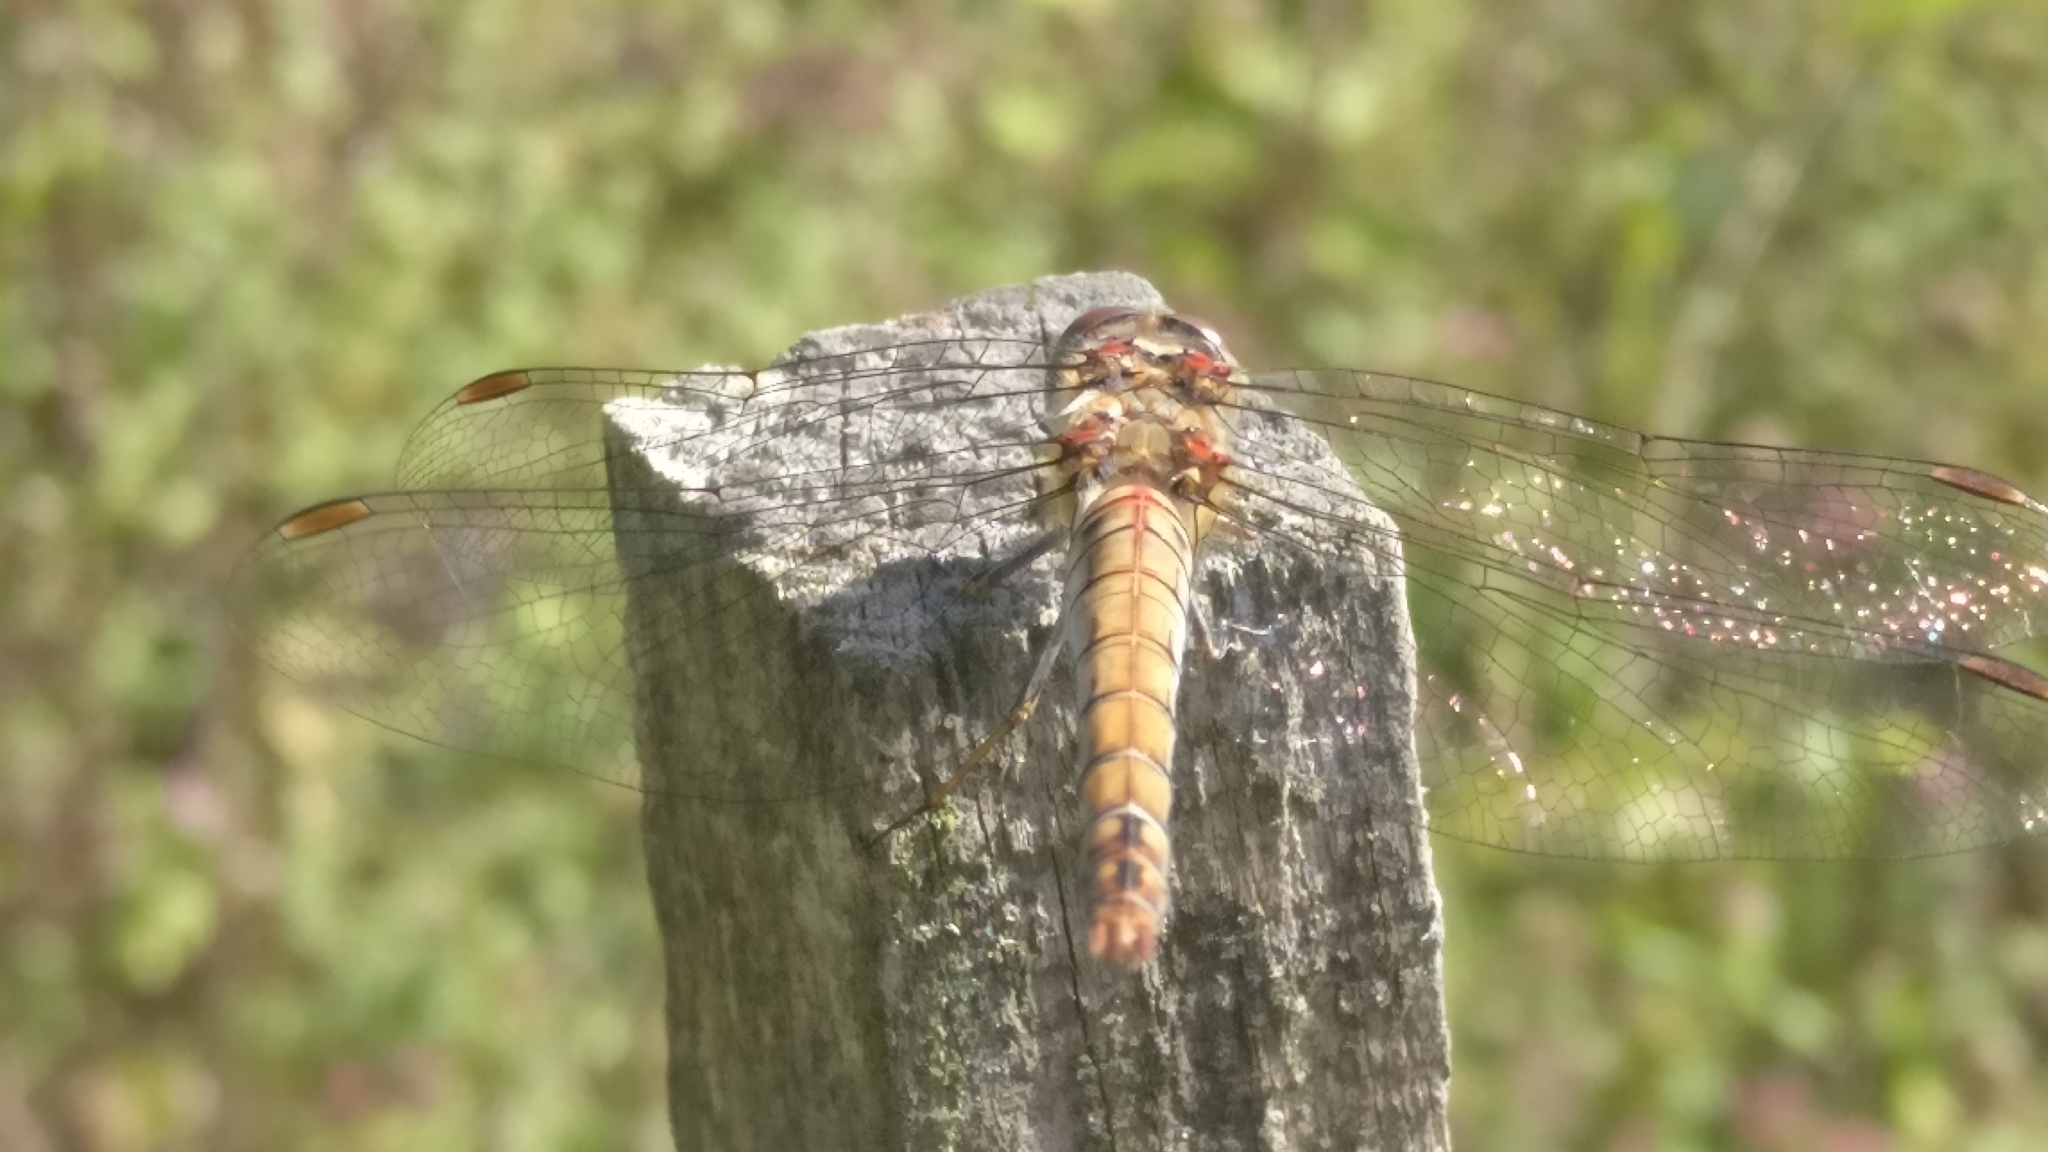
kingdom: Animalia
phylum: Arthropoda
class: Insecta
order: Odonata
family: Libellulidae
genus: Sympetrum
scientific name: Sympetrum striolatum
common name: Common darter
